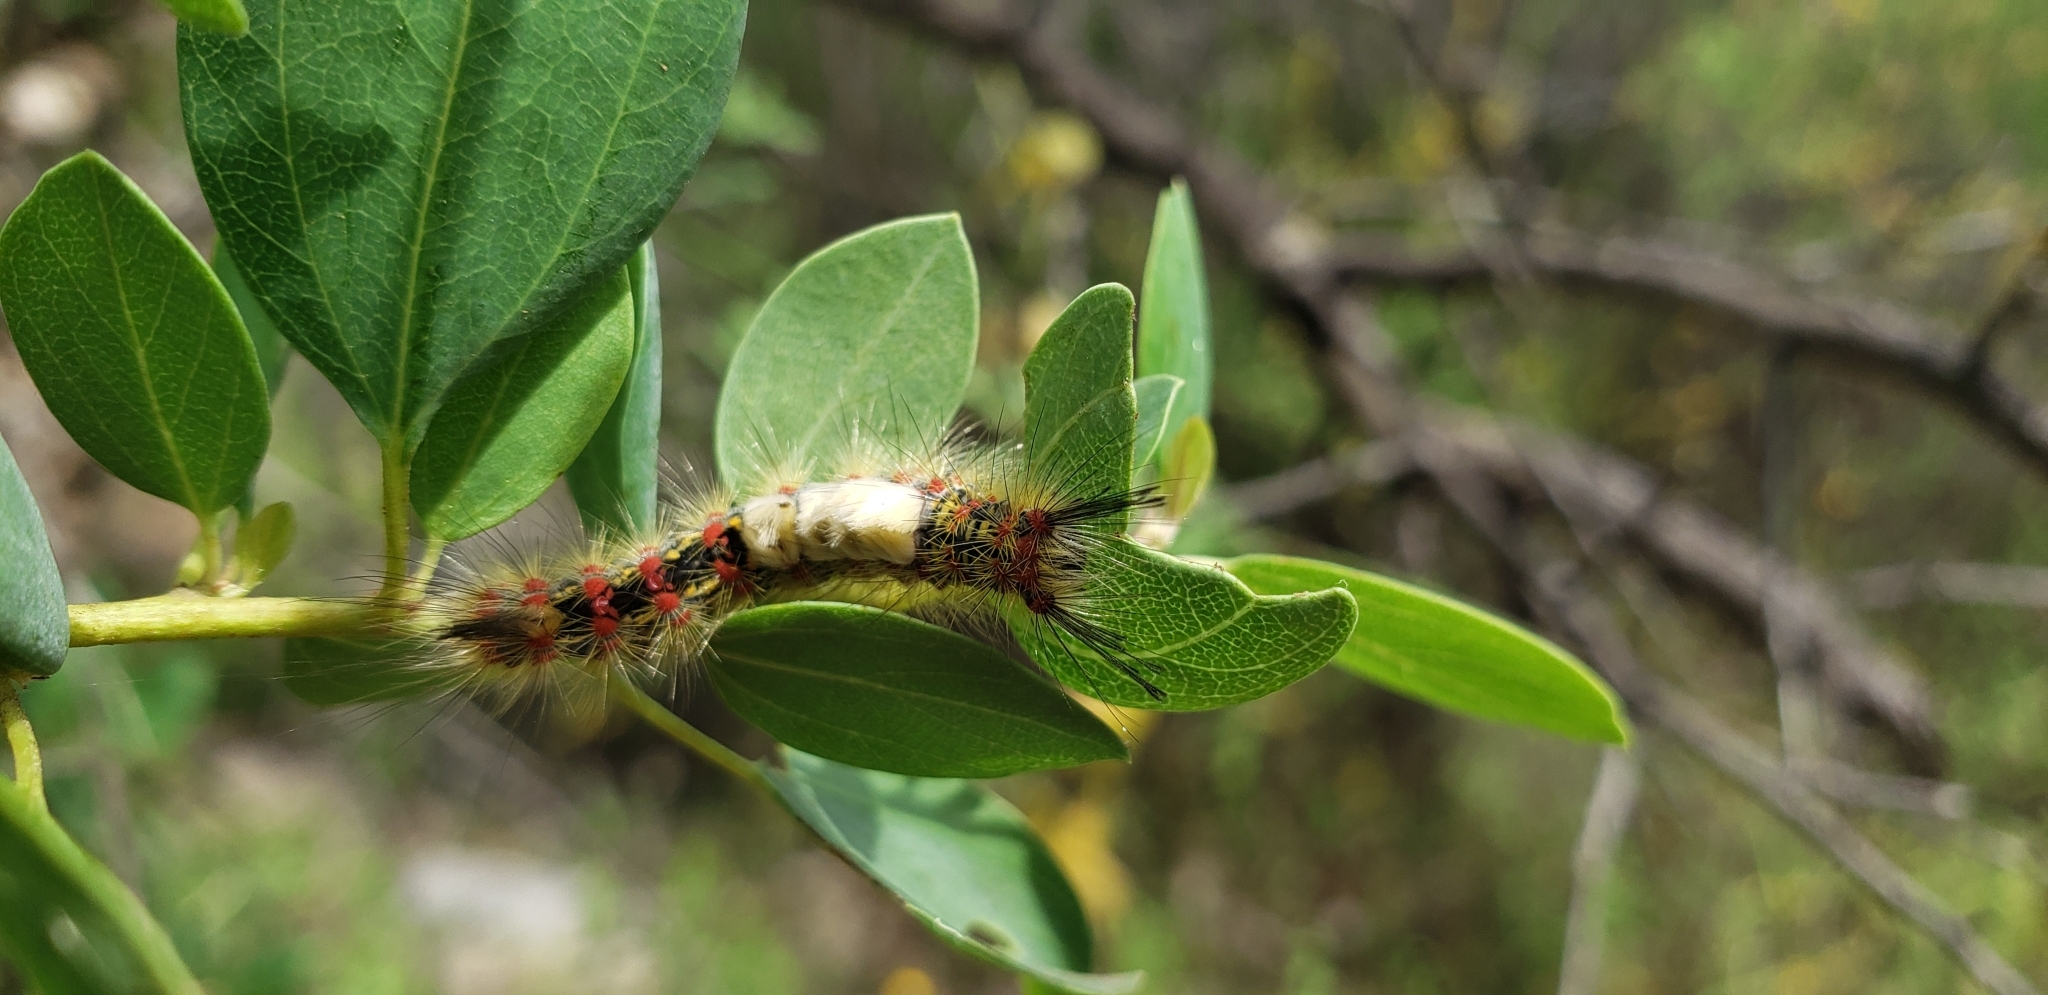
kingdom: Animalia
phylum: Arthropoda
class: Insecta
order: Lepidoptera
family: Erebidae
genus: Orgyia
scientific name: Orgyia
